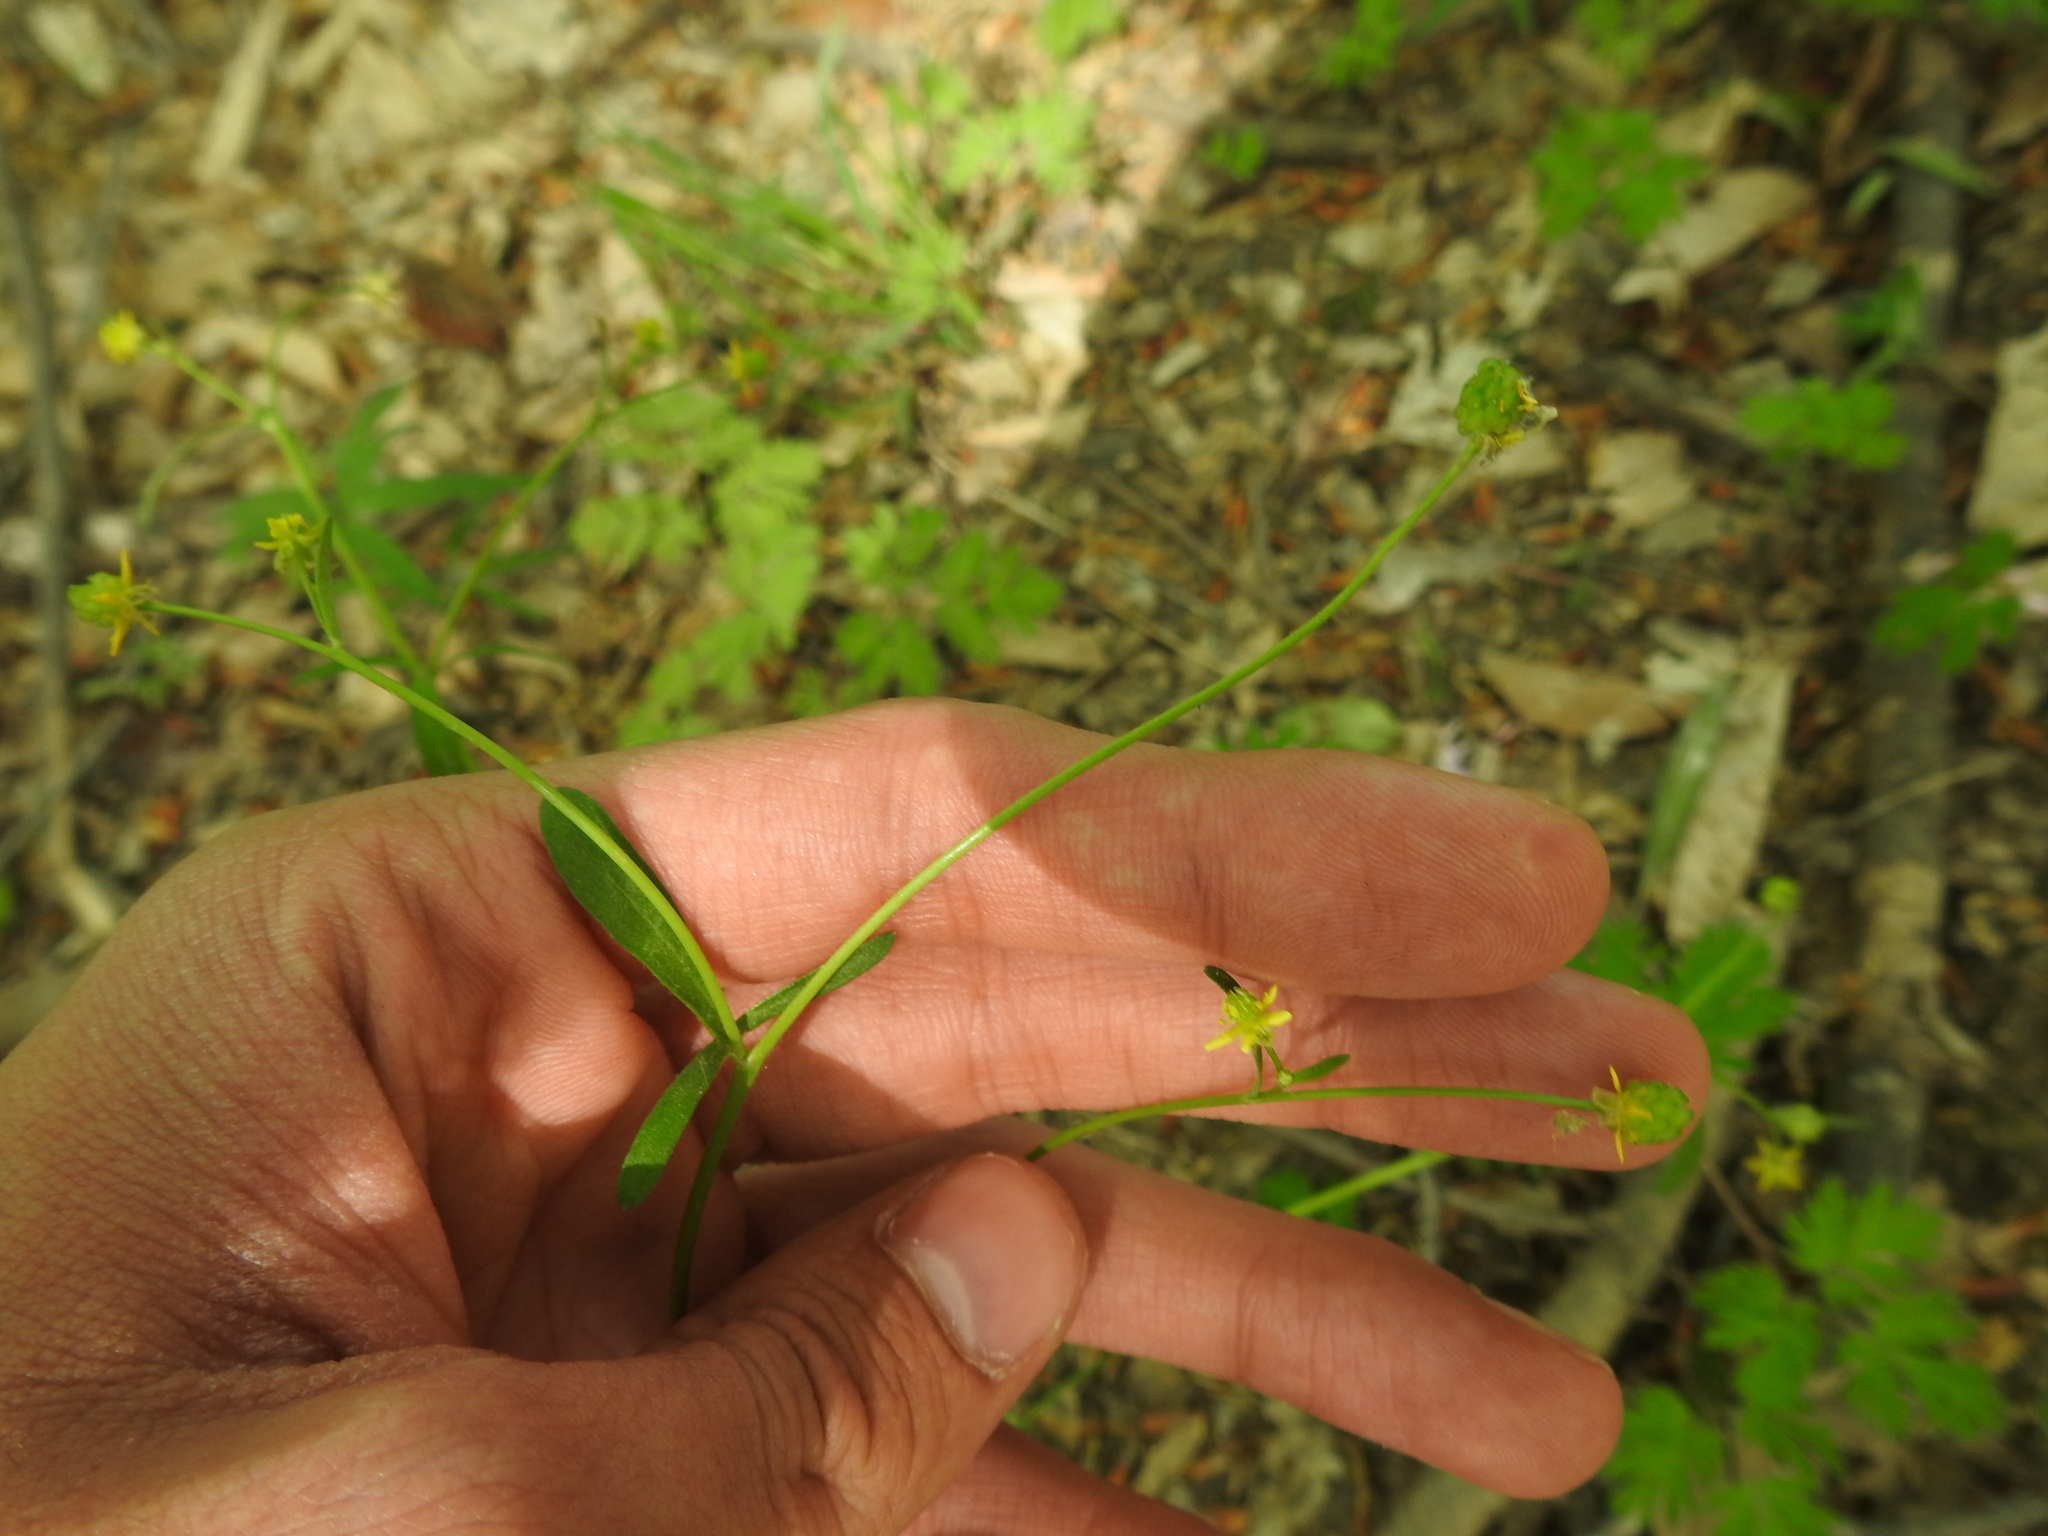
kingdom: Plantae
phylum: Tracheophyta
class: Magnoliopsida
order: Ranunculales
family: Ranunculaceae
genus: Ranunculus
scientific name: Ranunculus abortivus
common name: Early wood buttercup
